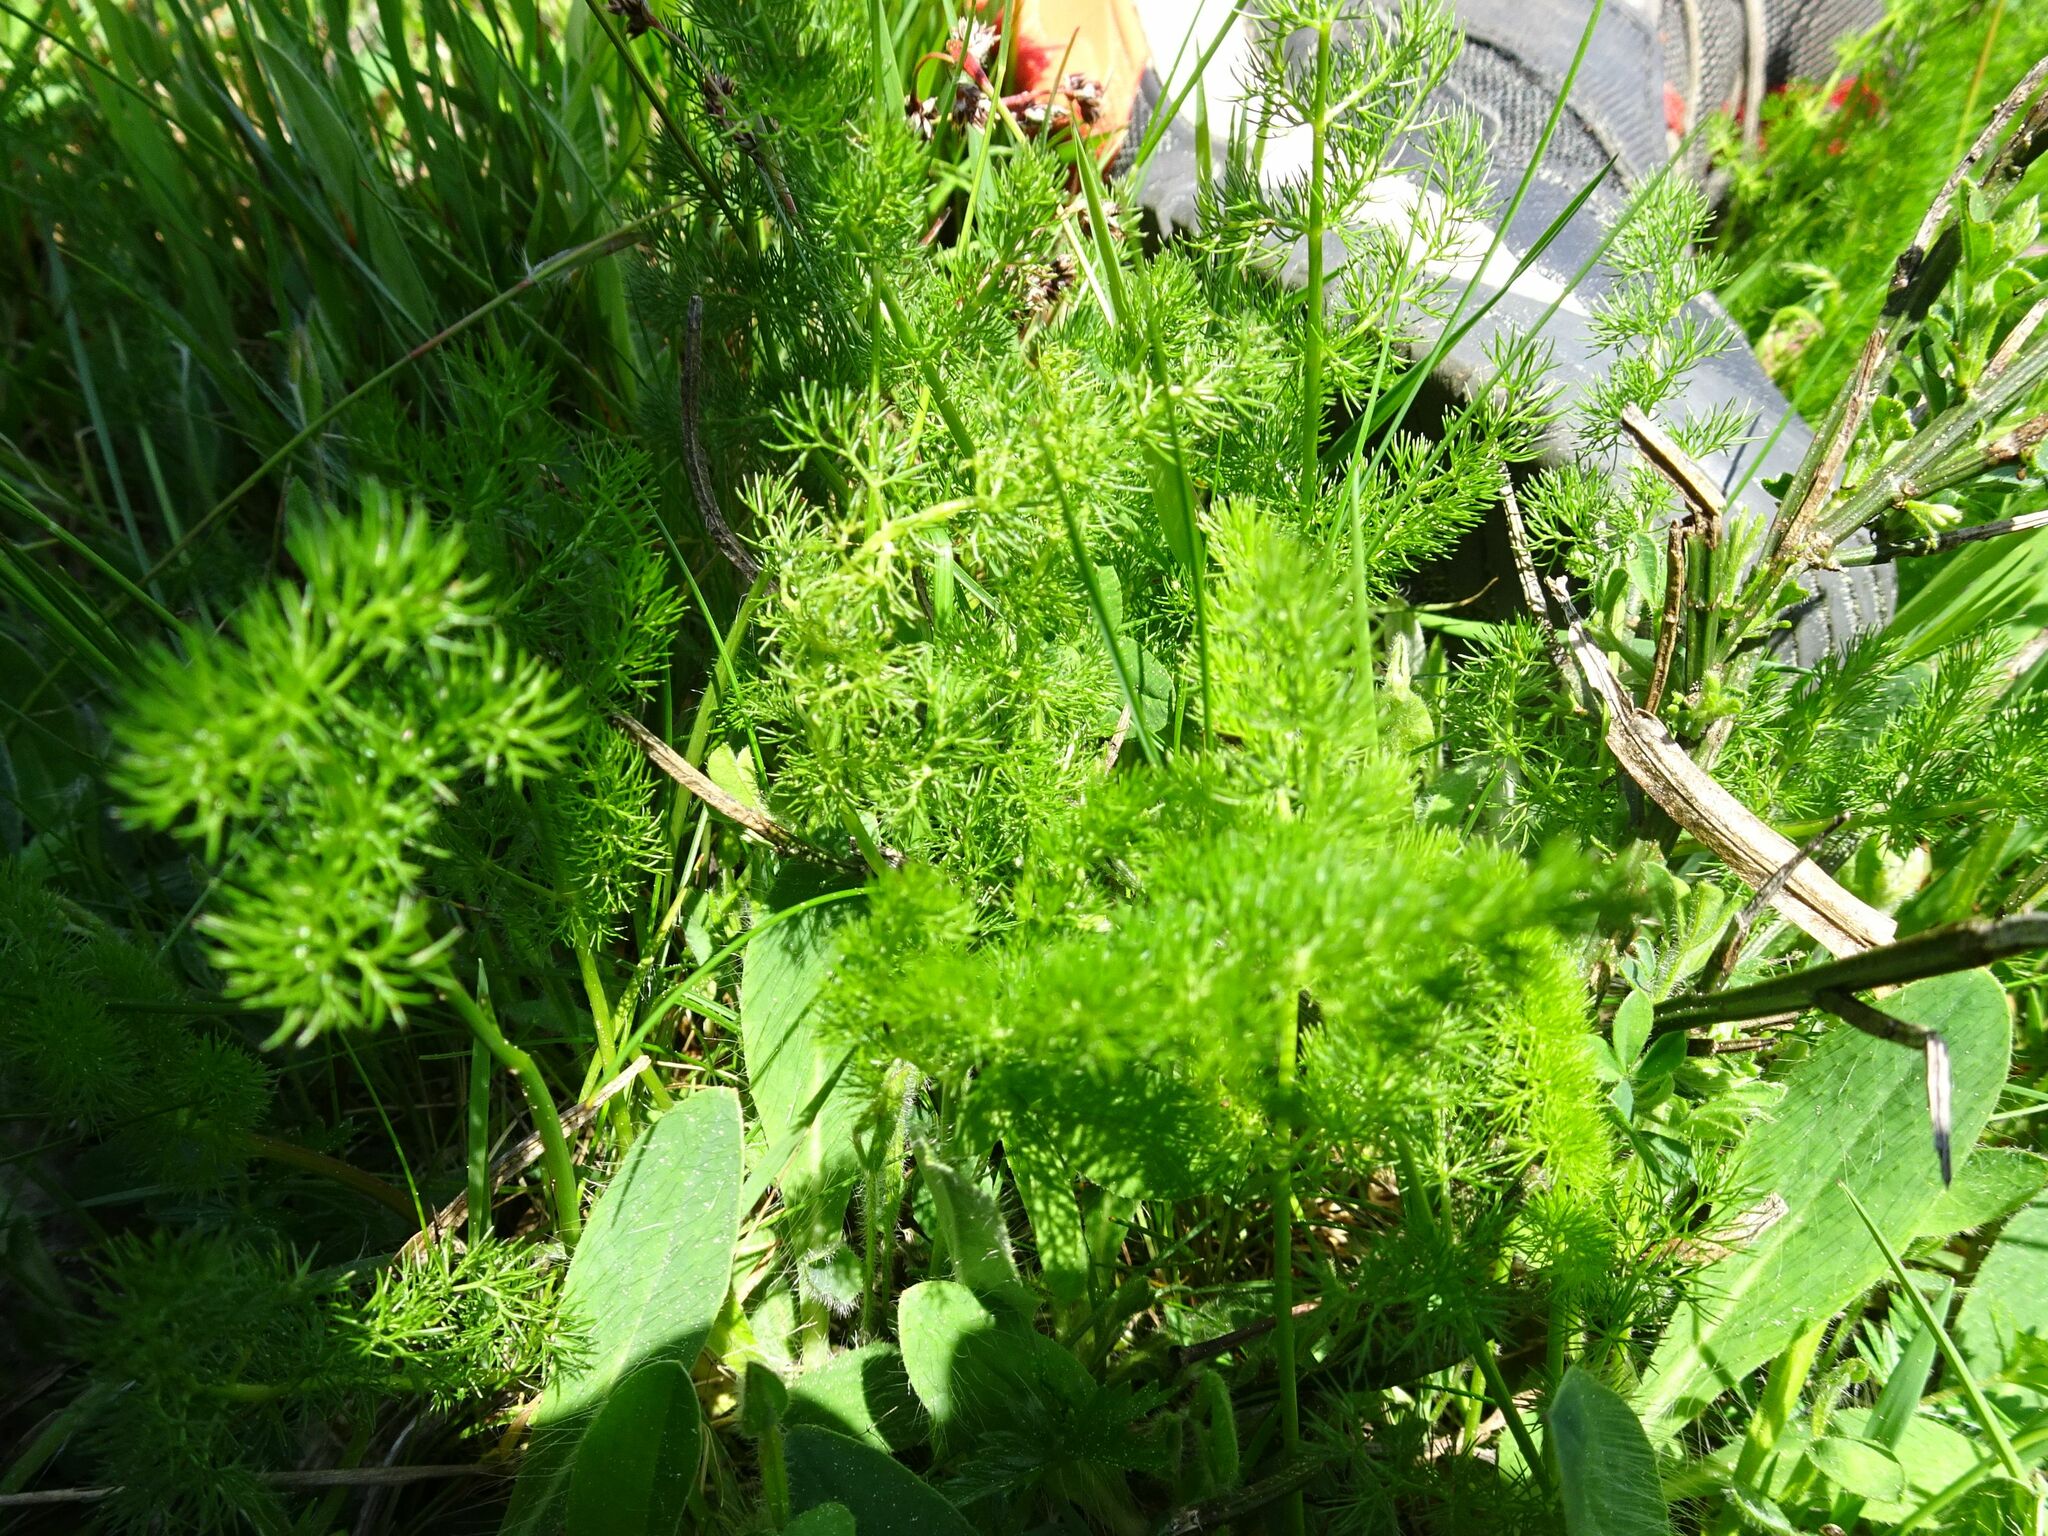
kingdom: Plantae
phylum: Tracheophyta
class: Magnoliopsida
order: Apiales
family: Apiaceae
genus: Meum
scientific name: Meum athamanticum
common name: Spignel
